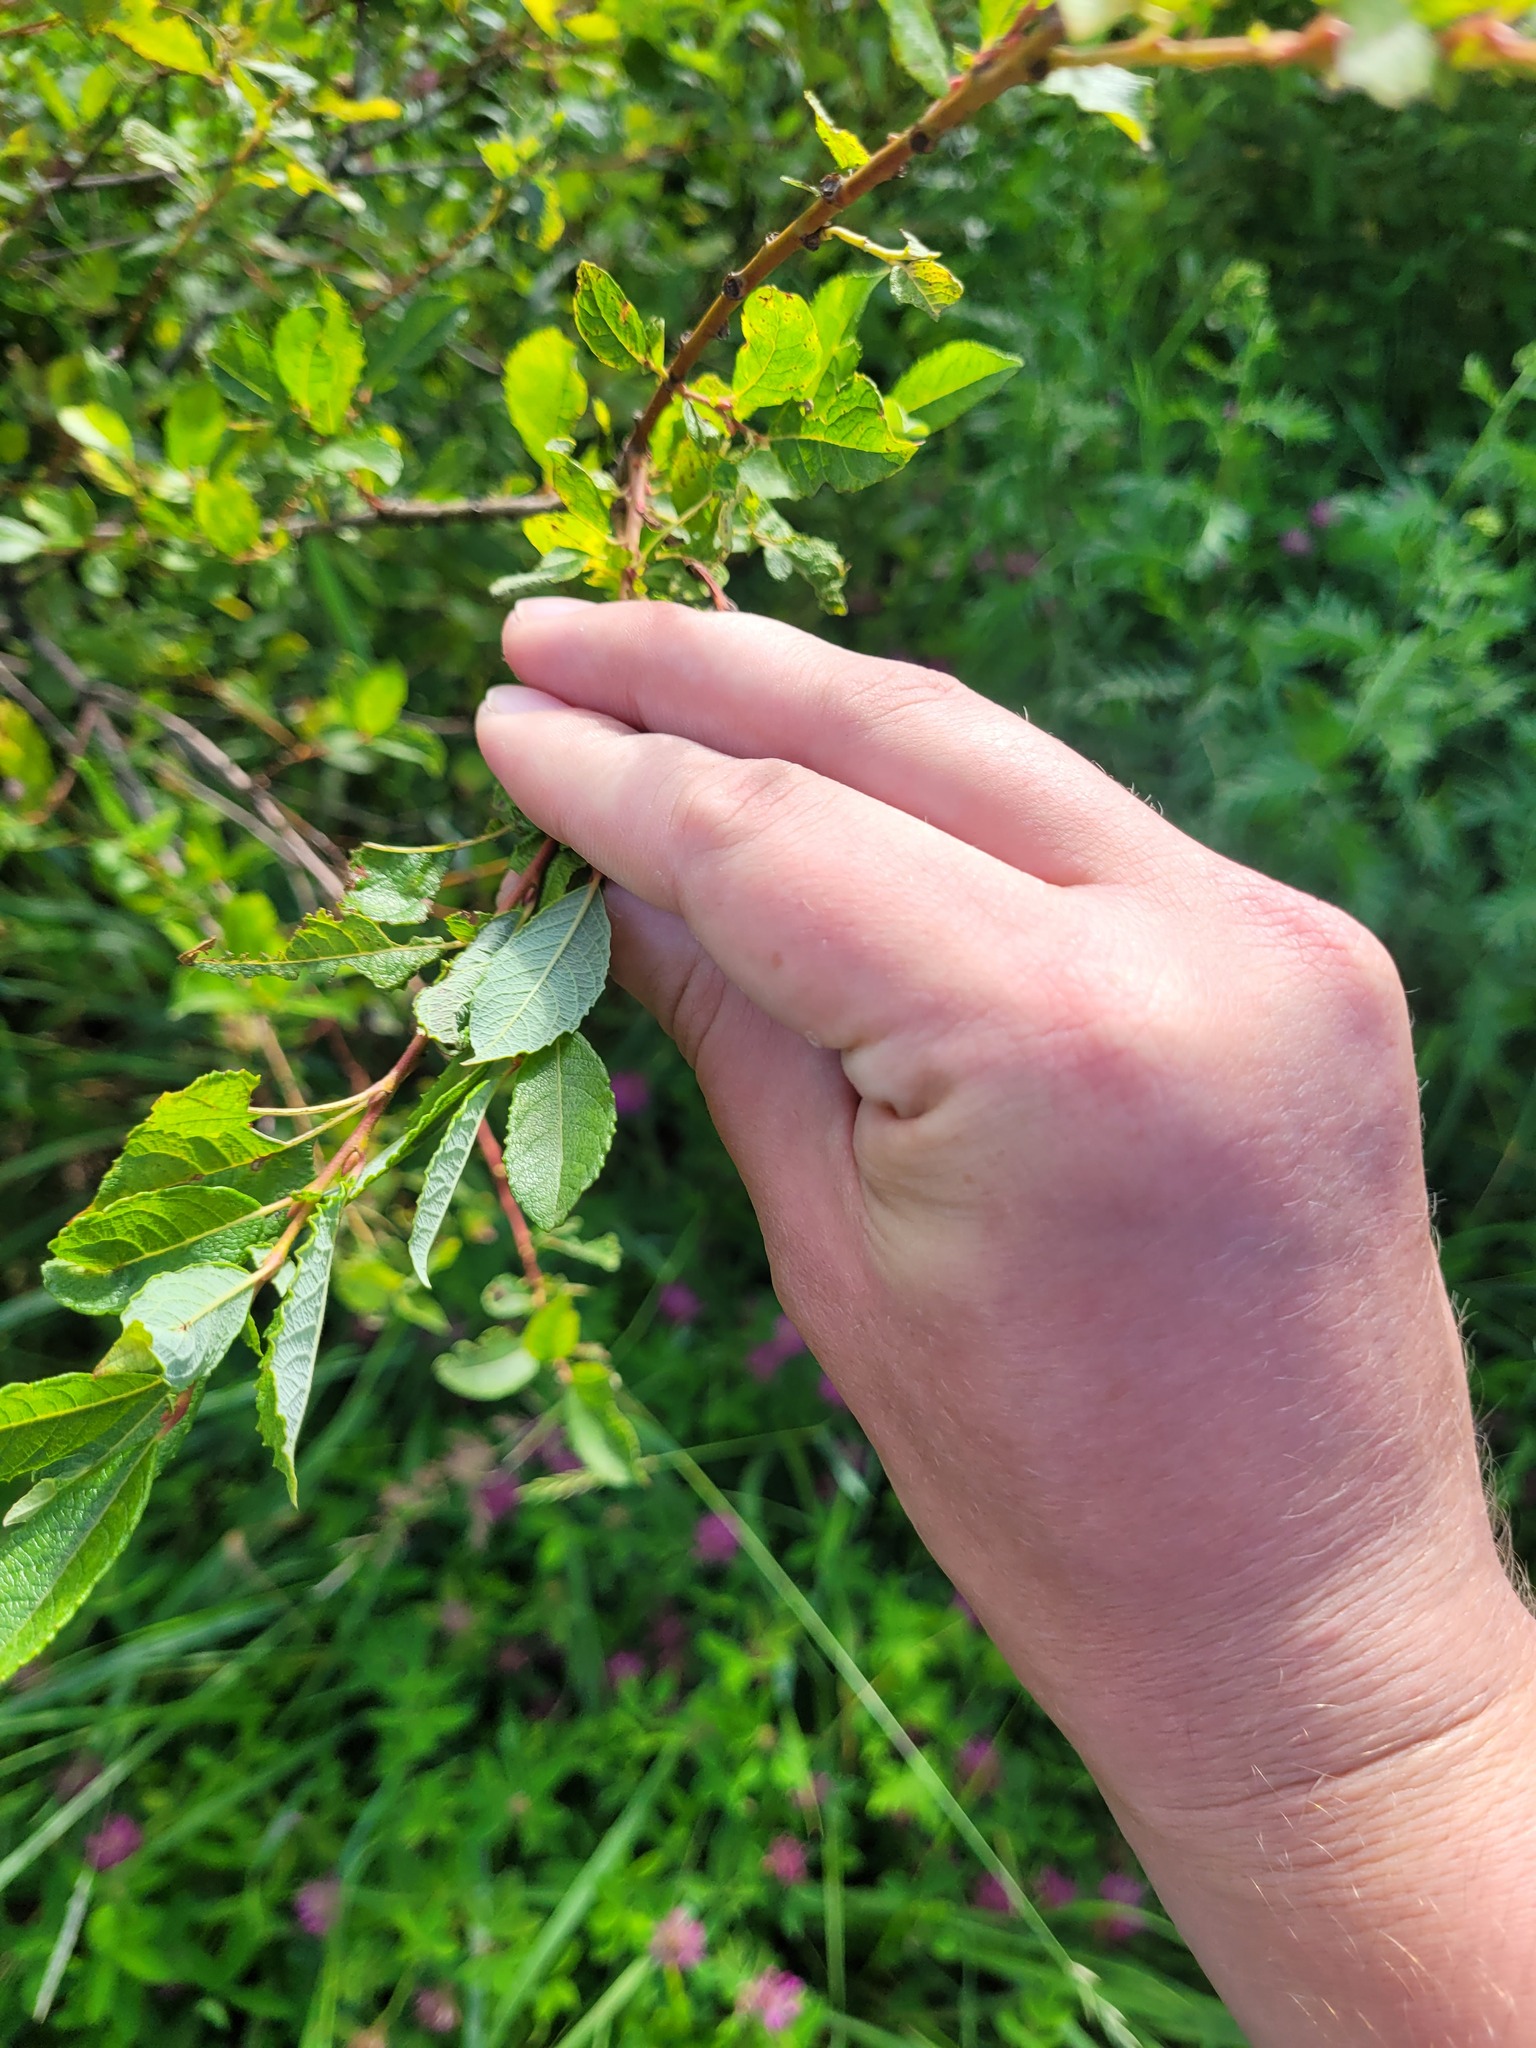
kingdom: Plantae
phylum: Tracheophyta
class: Magnoliopsida
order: Malpighiales
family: Salicaceae
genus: Salix
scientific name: Salix aurita
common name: Eared willow
